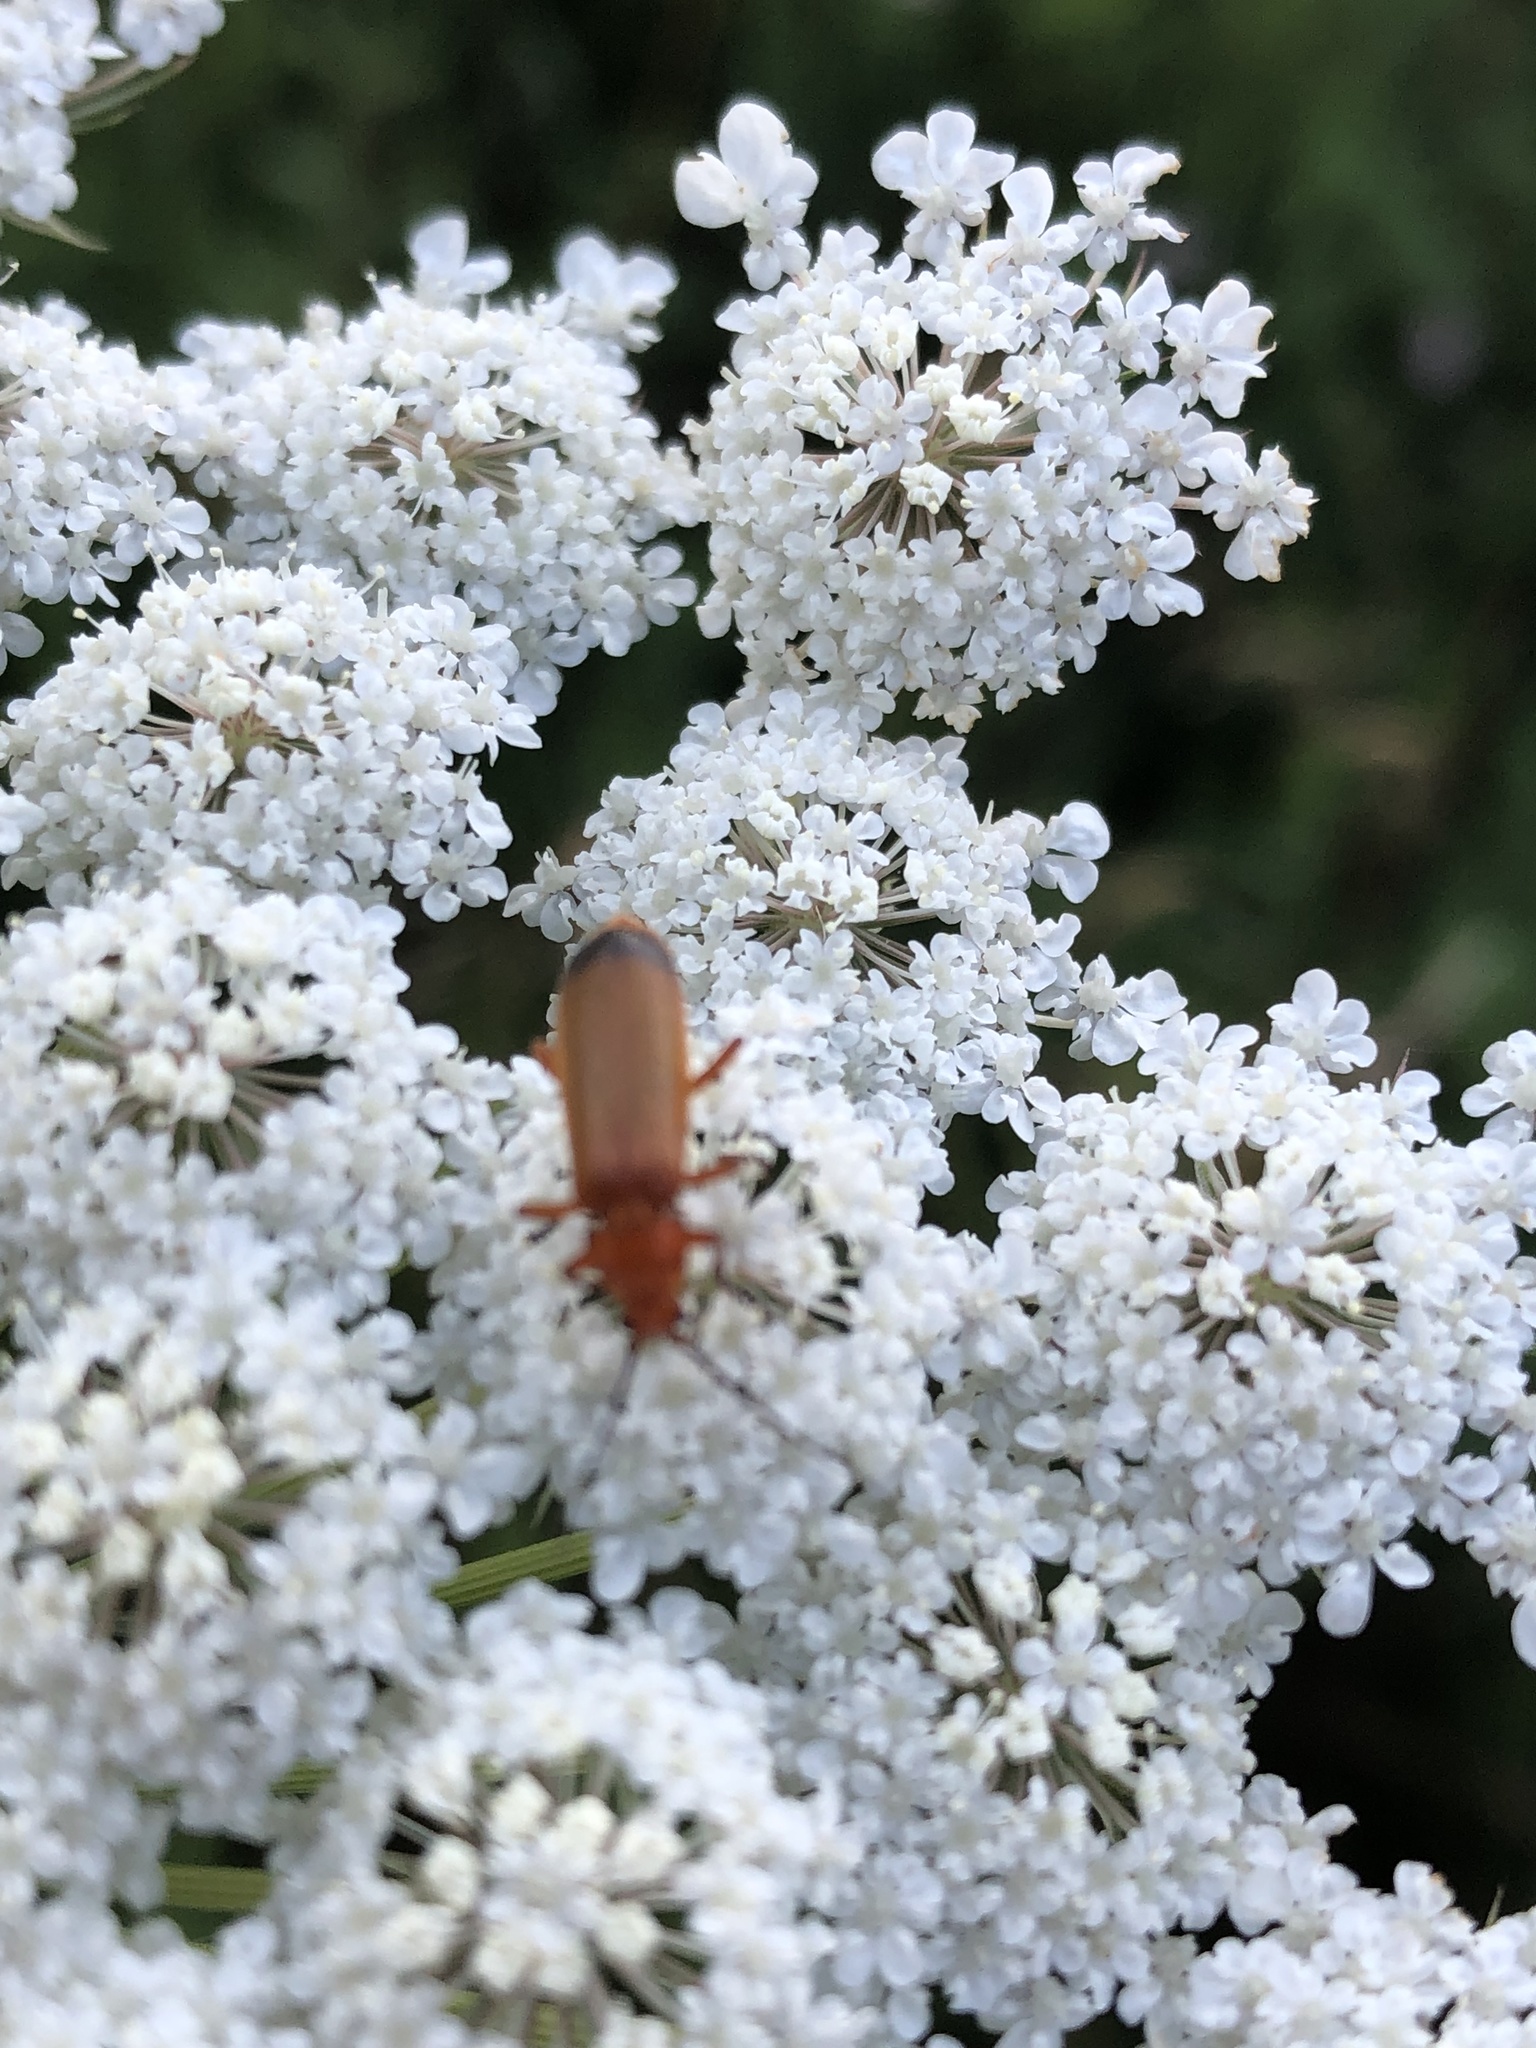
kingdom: Animalia
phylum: Arthropoda
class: Insecta
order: Coleoptera
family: Cantharidae
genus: Rhagonycha
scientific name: Rhagonycha fulva
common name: Common red soldier beetle
